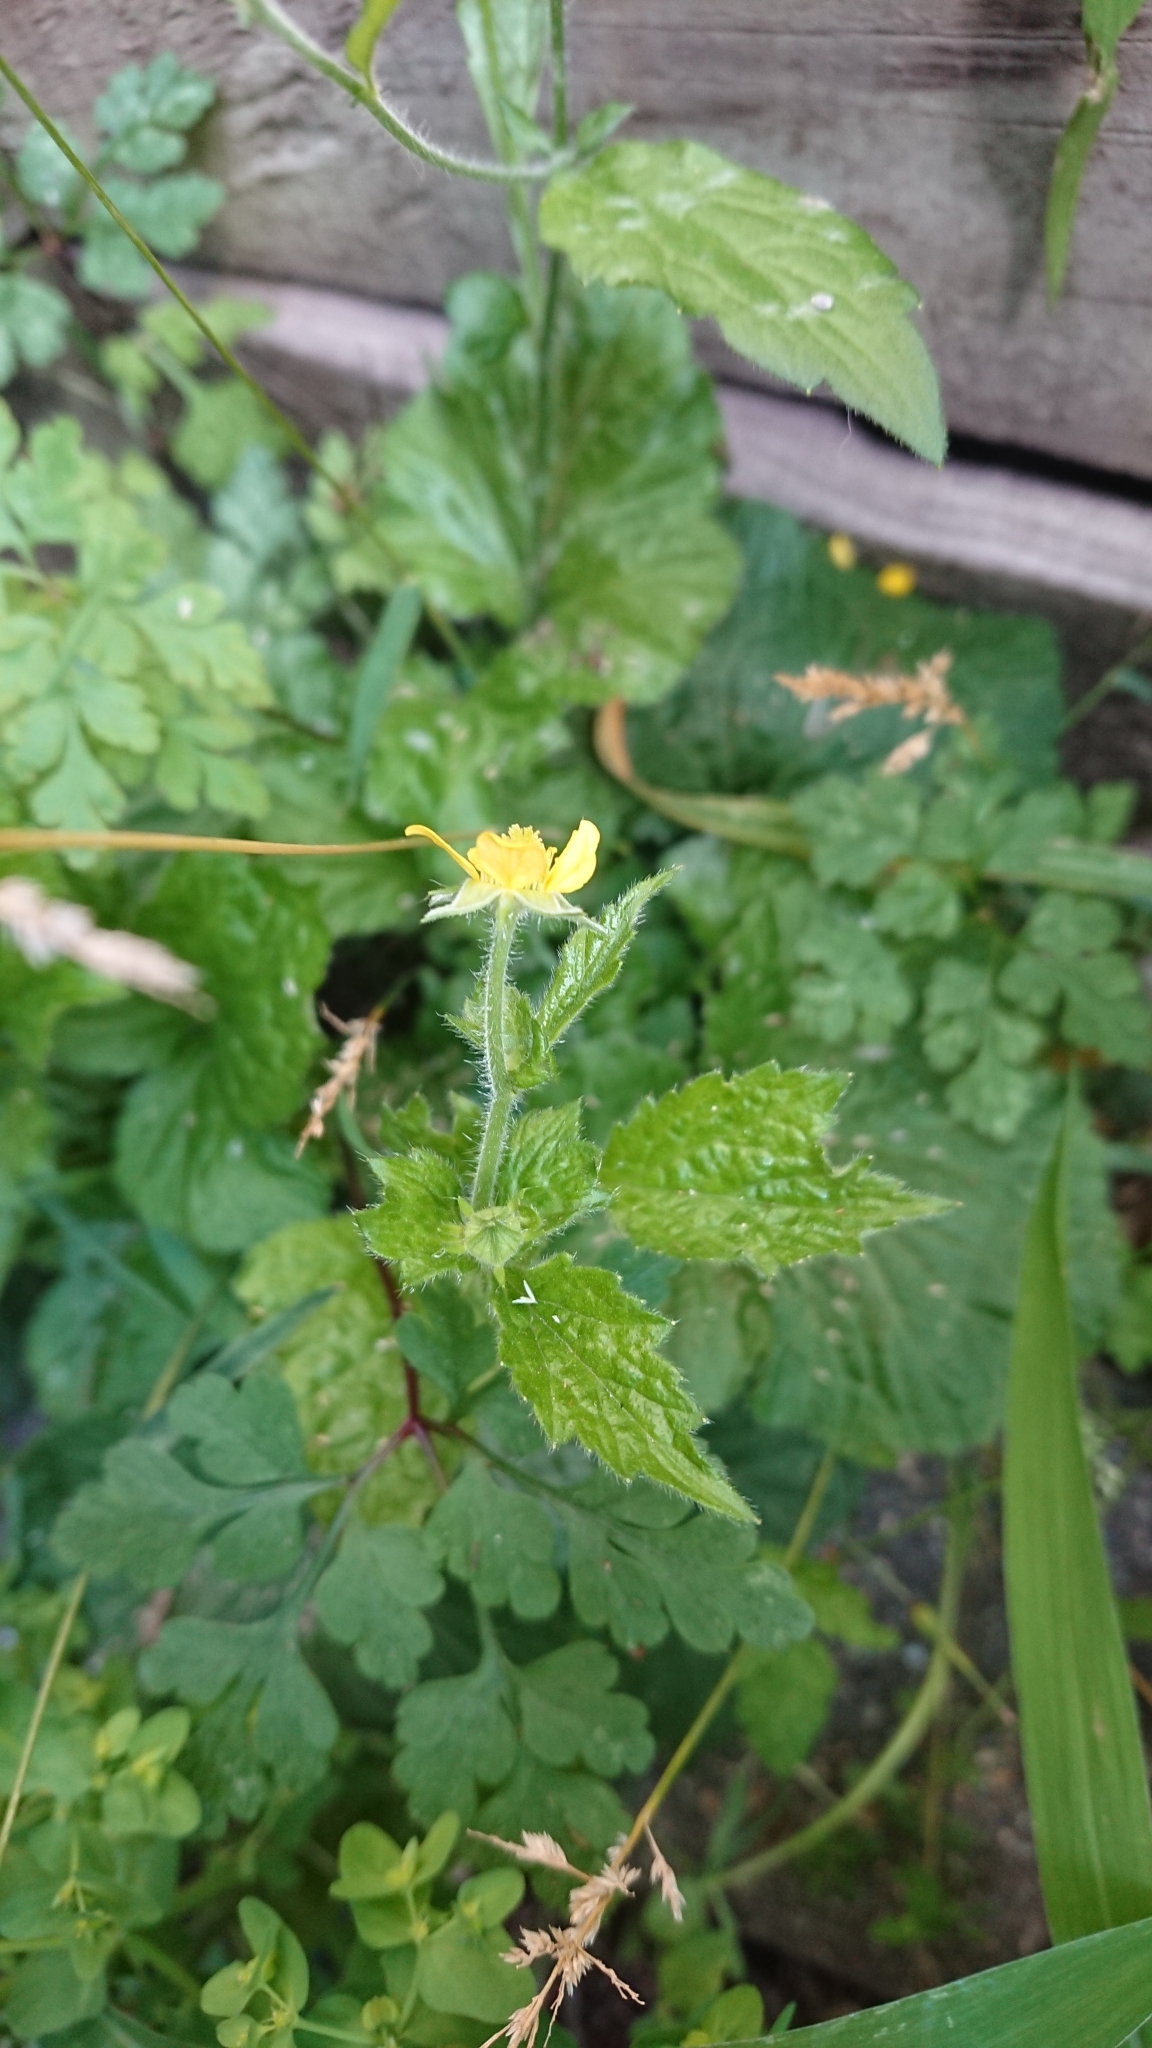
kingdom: Plantae
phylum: Tracheophyta
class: Magnoliopsida
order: Rosales
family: Rosaceae
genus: Geum
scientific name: Geum urbanum
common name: Wood avens
